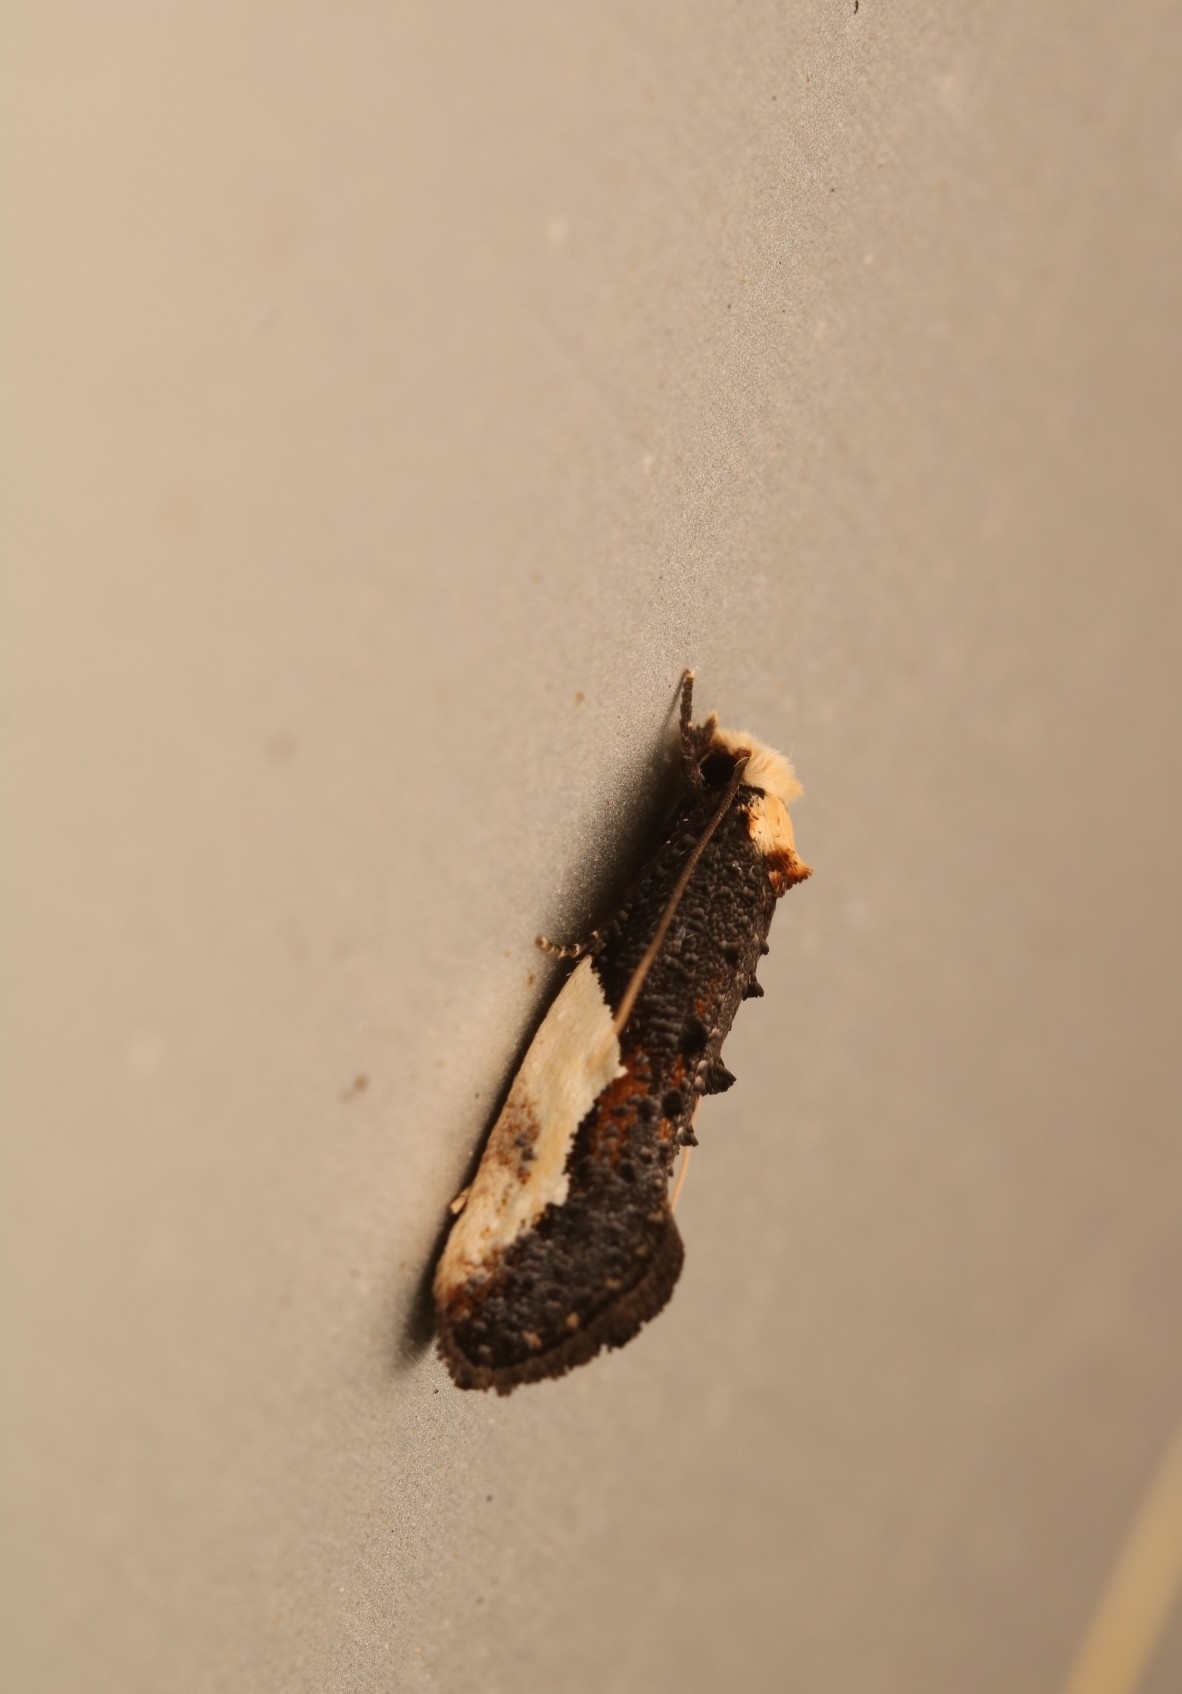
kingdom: Animalia
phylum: Arthropoda
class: Insecta
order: Lepidoptera
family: Tineidae
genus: Monopis
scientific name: Monopis longella
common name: Pavlovski's monopis moth
